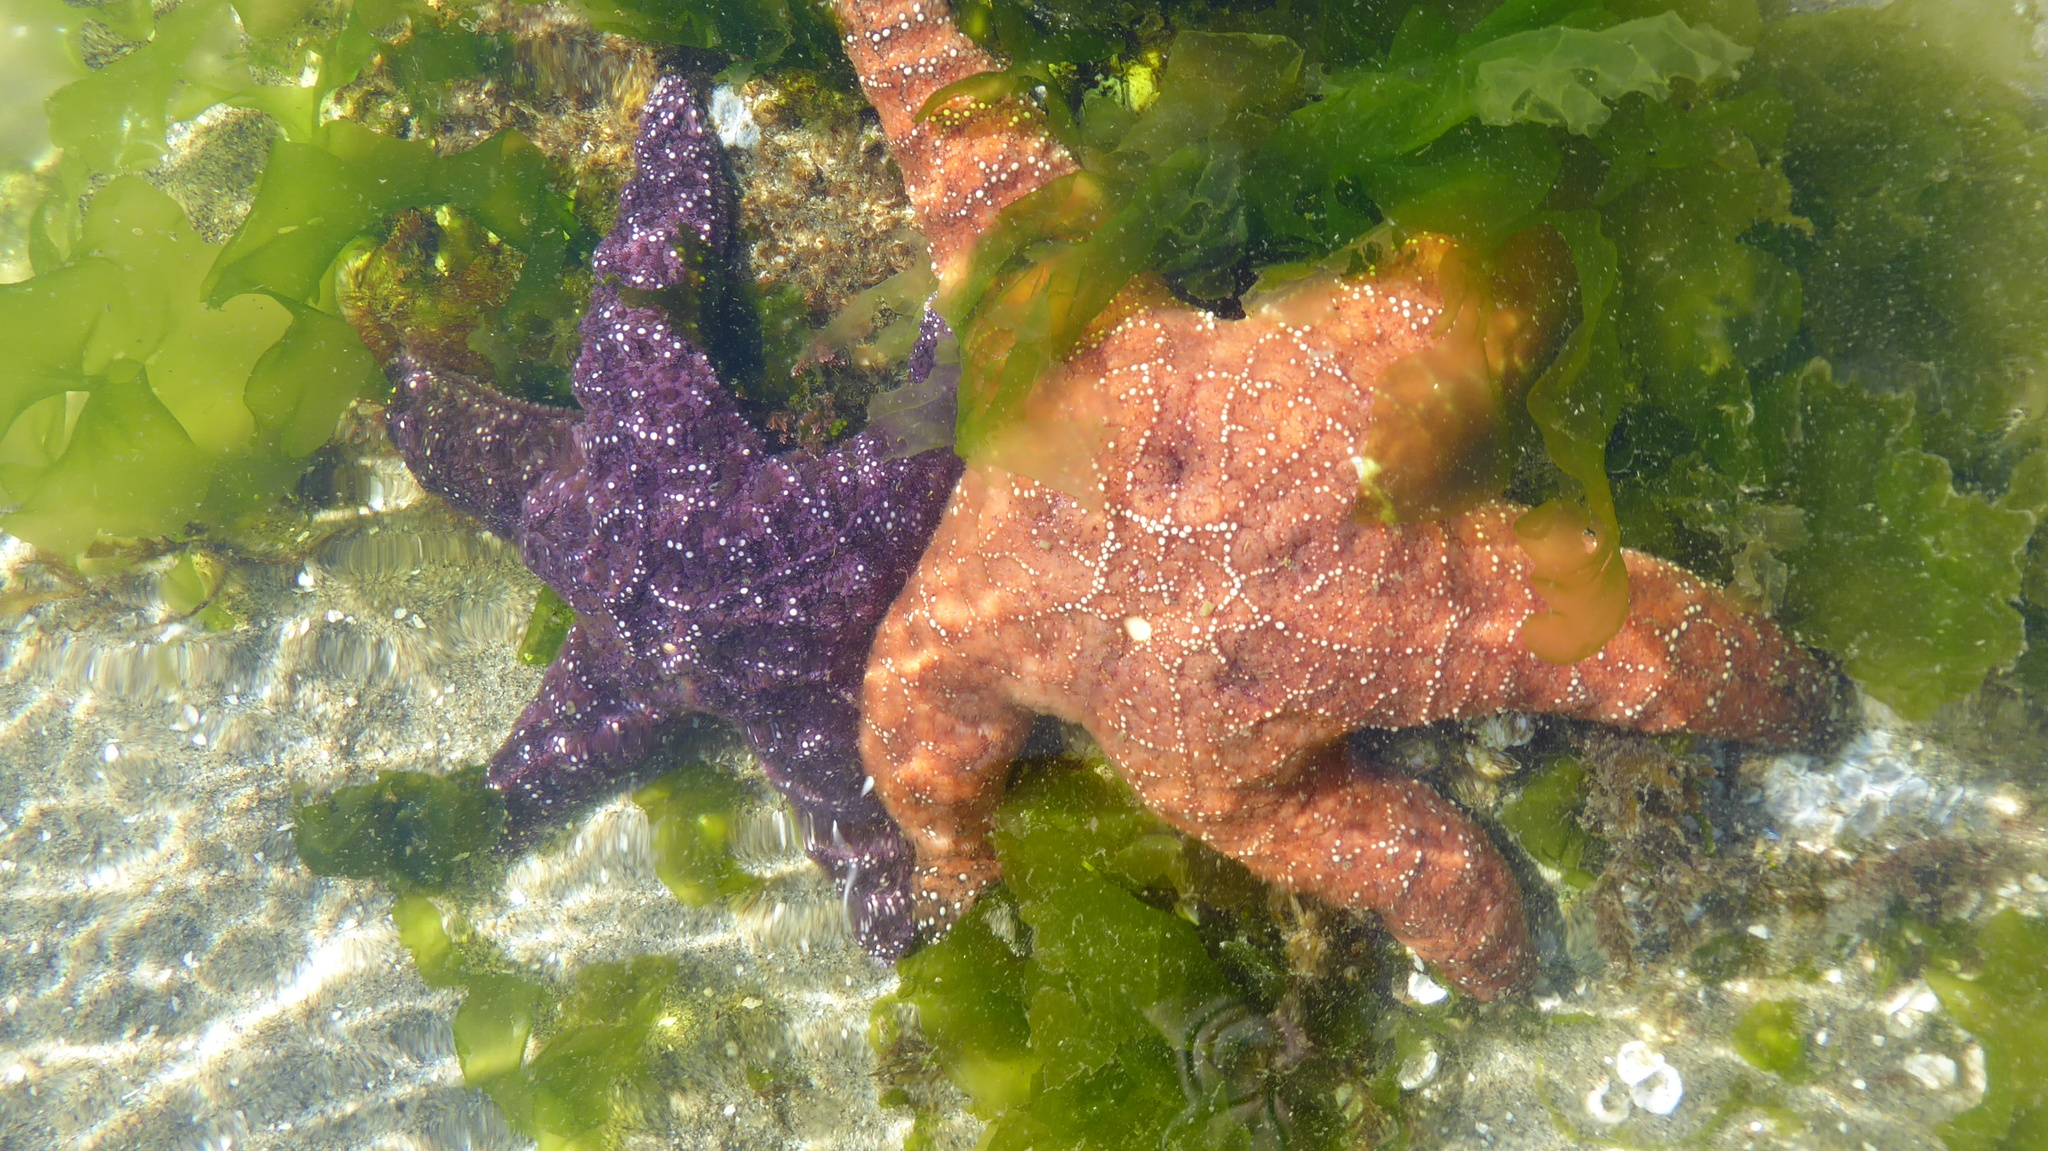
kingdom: Animalia
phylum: Echinodermata
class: Asteroidea
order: Forcipulatida
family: Asteriidae
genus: Pisaster
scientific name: Pisaster ochraceus
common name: Ochre stars
